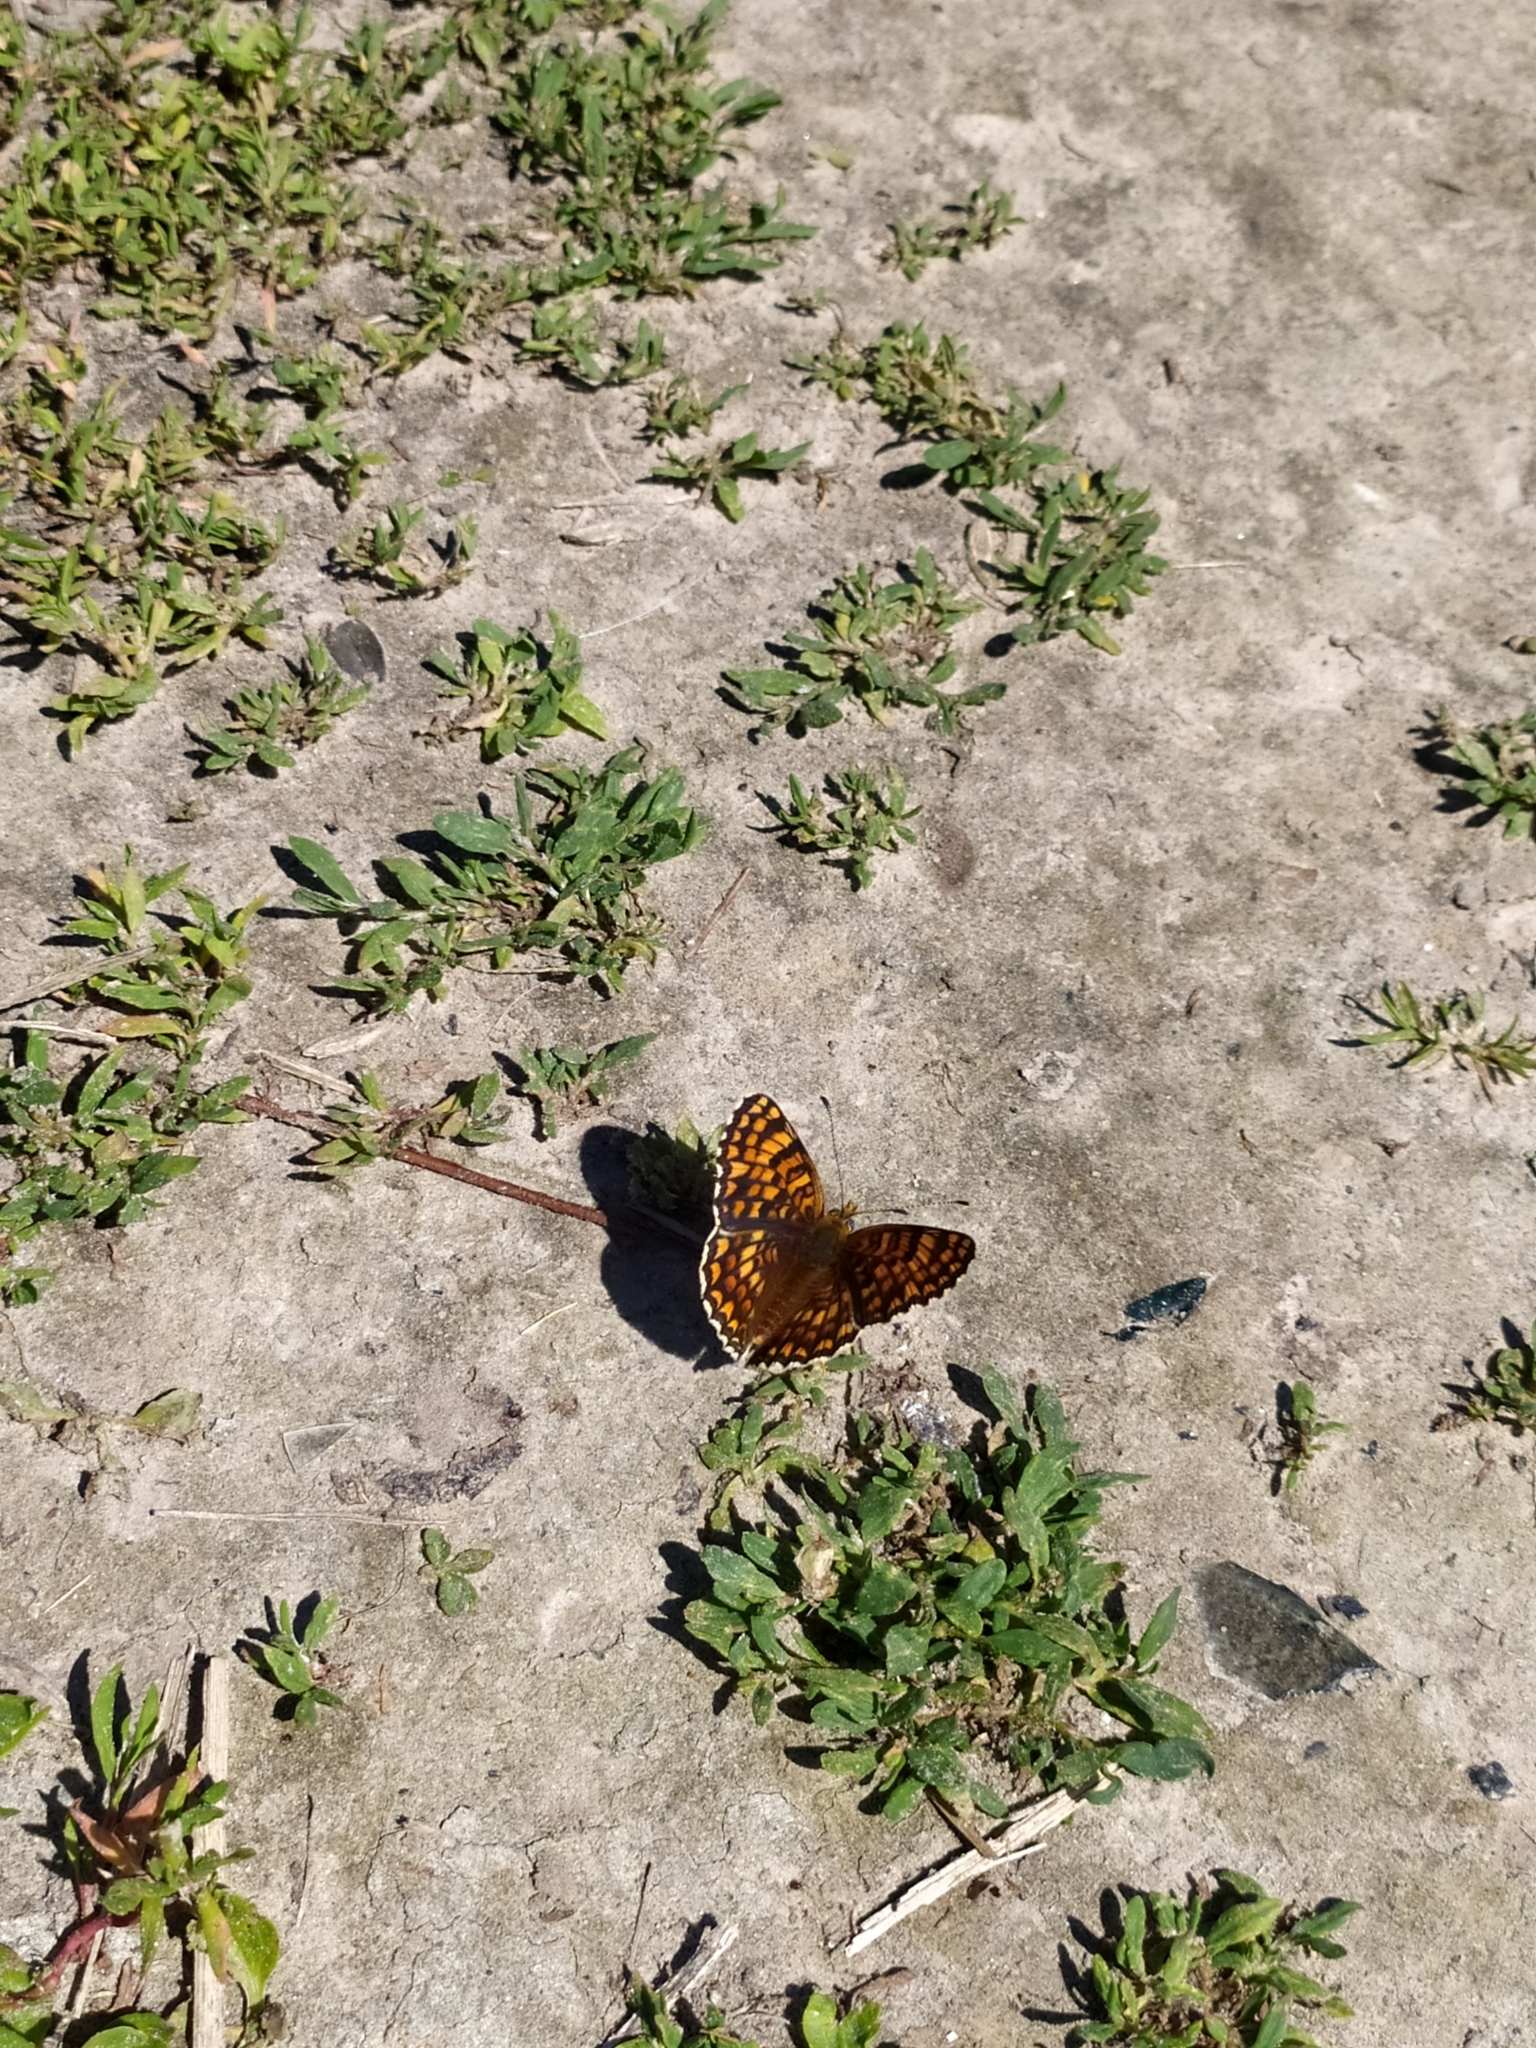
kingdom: Animalia
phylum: Arthropoda
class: Insecta
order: Lepidoptera
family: Nymphalidae
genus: Melitaea
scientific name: Melitaea phoebe
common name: Knapweed fritillary
